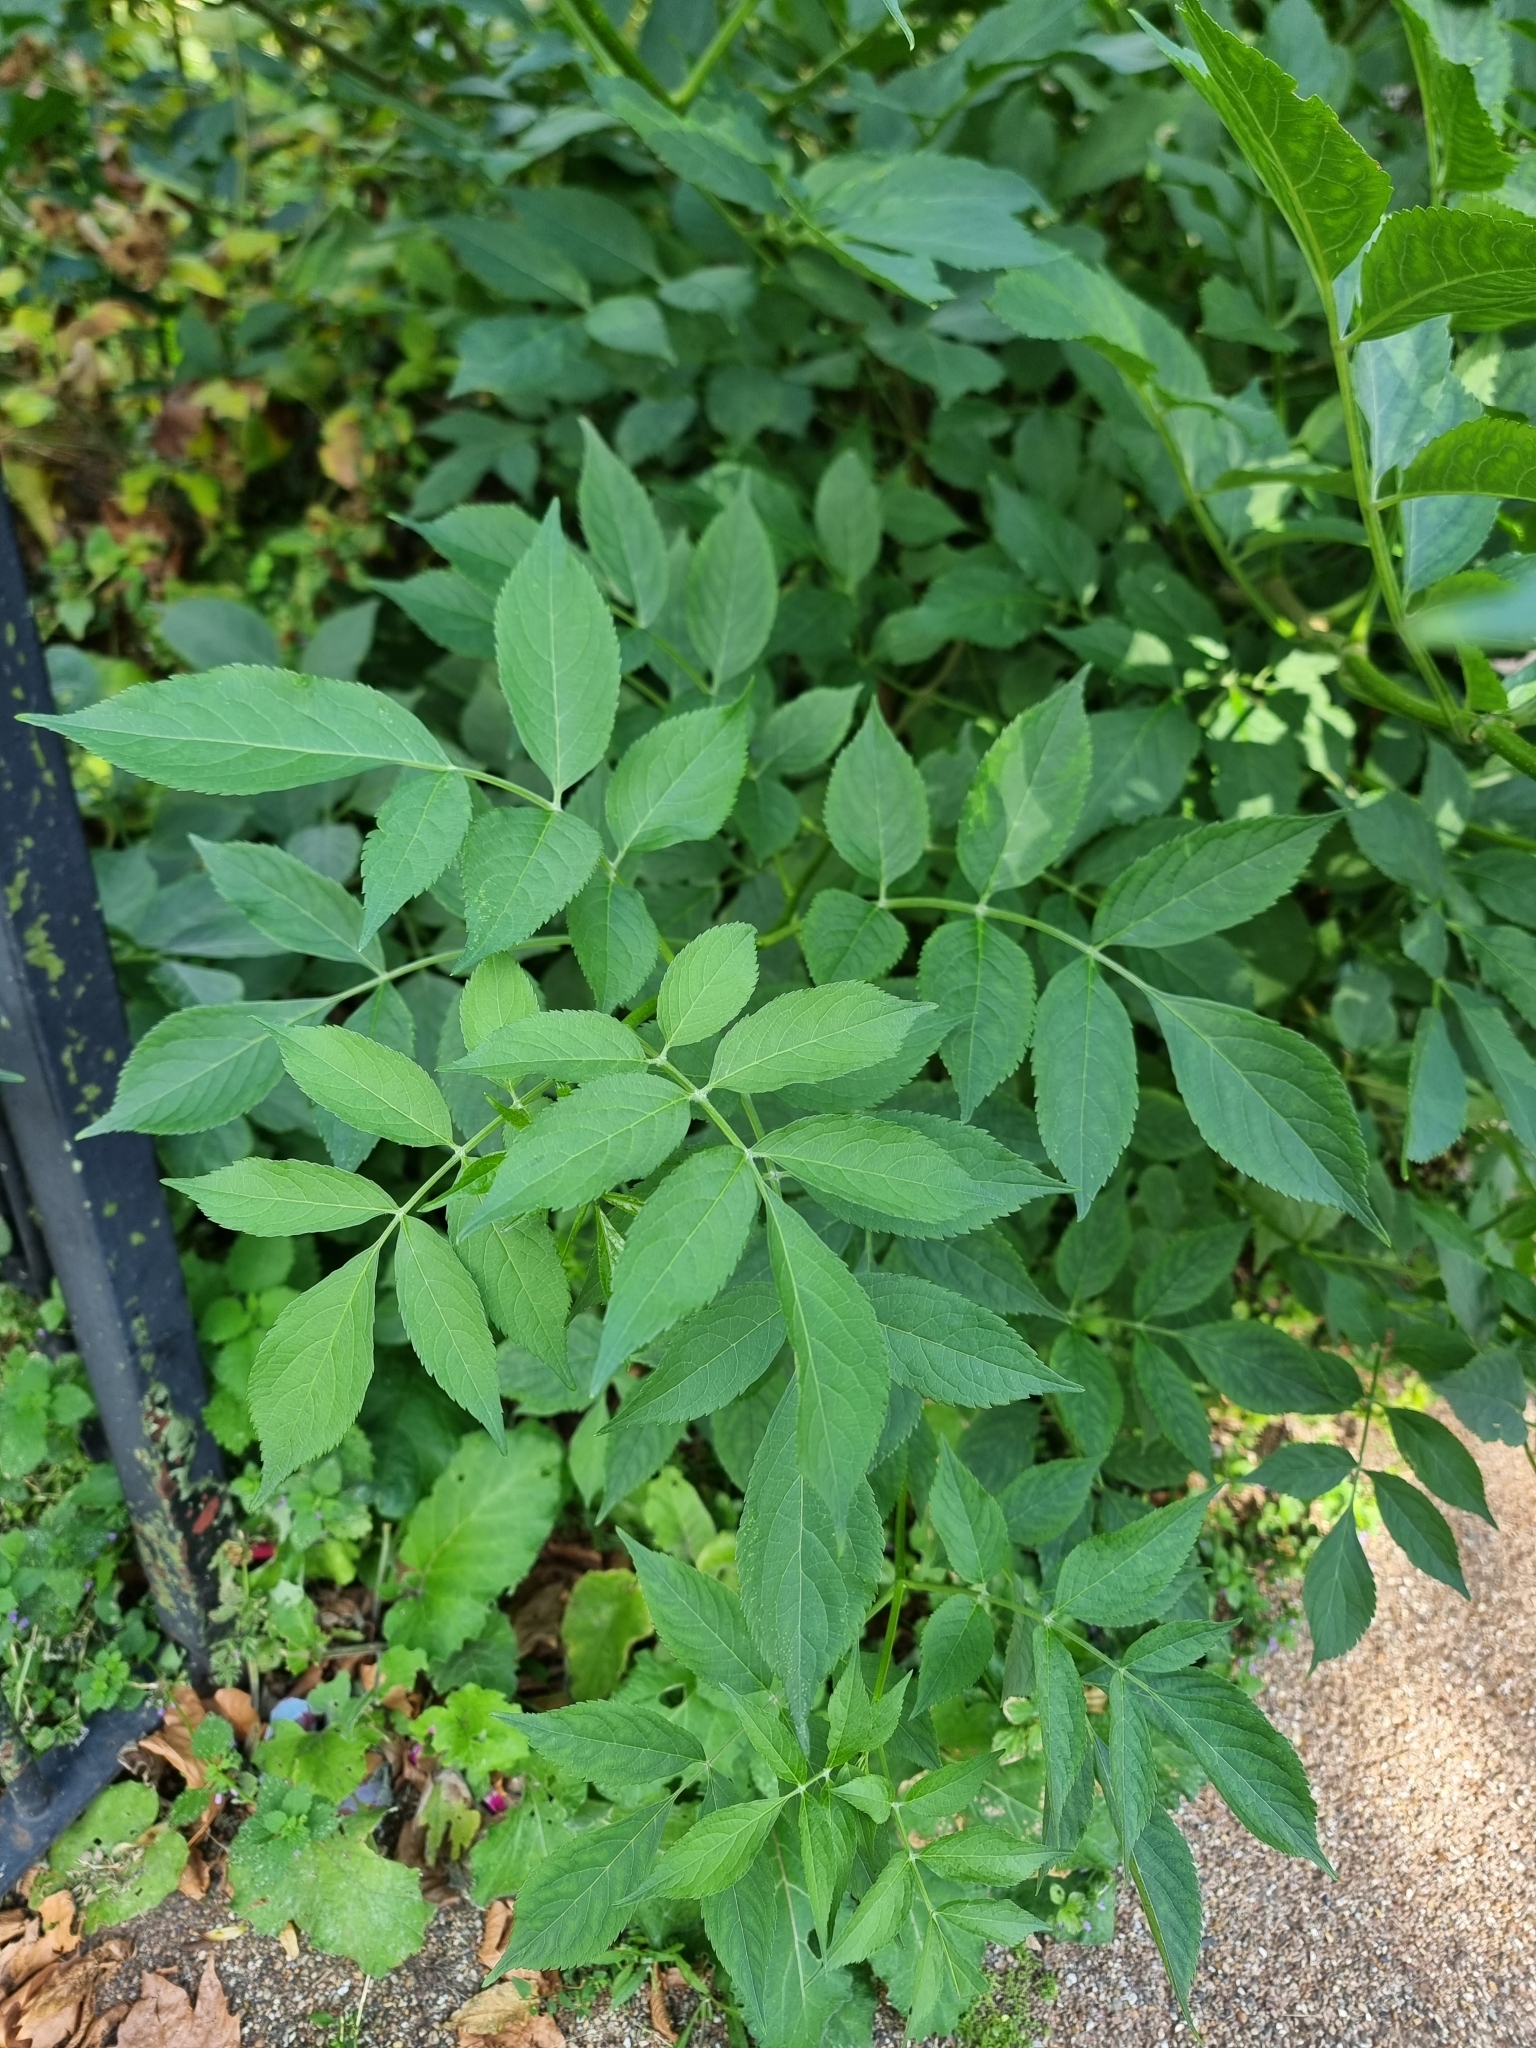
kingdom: Plantae
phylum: Tracheophyta
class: Magnoliopsida
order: Dipsacales
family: Viburnaceae
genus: Sambucus
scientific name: Sambucus nigra
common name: Elder
